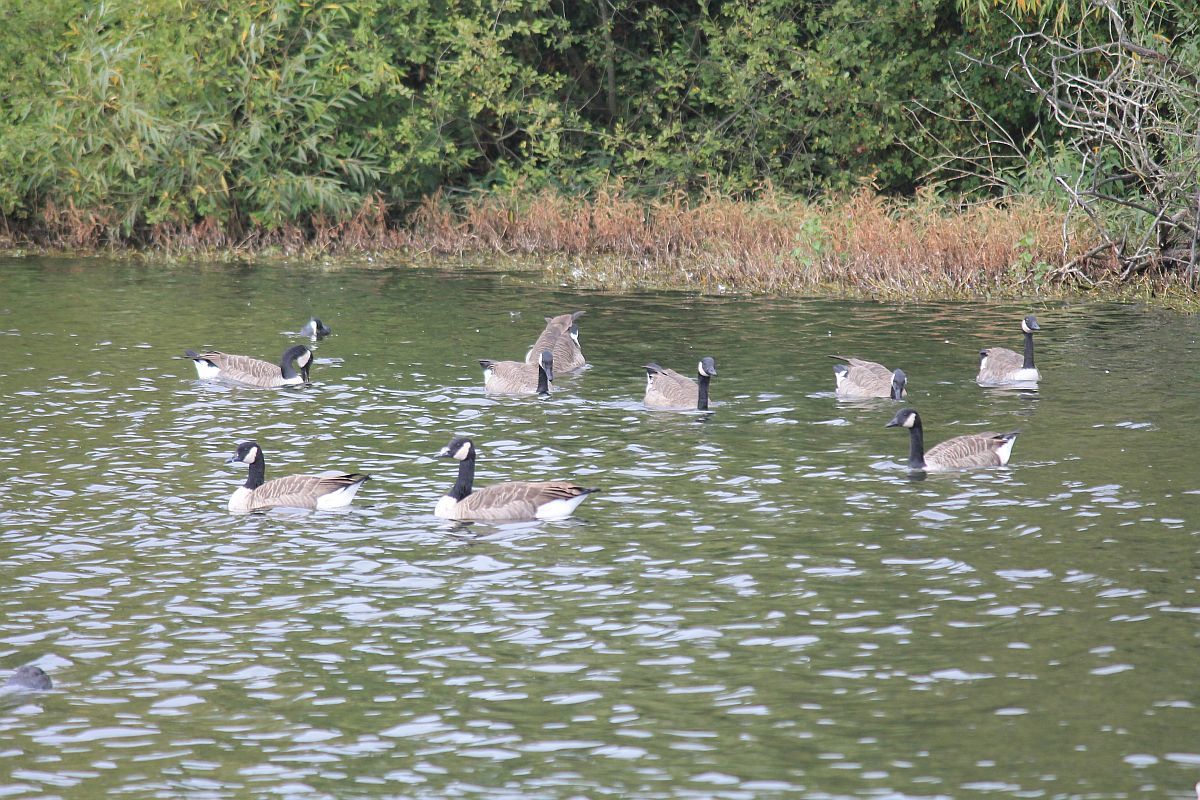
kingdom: Animalia
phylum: Chordata
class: Aves
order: Anseriformes
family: Anatidae
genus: Branta
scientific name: Branta canadensis
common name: Canada goose
